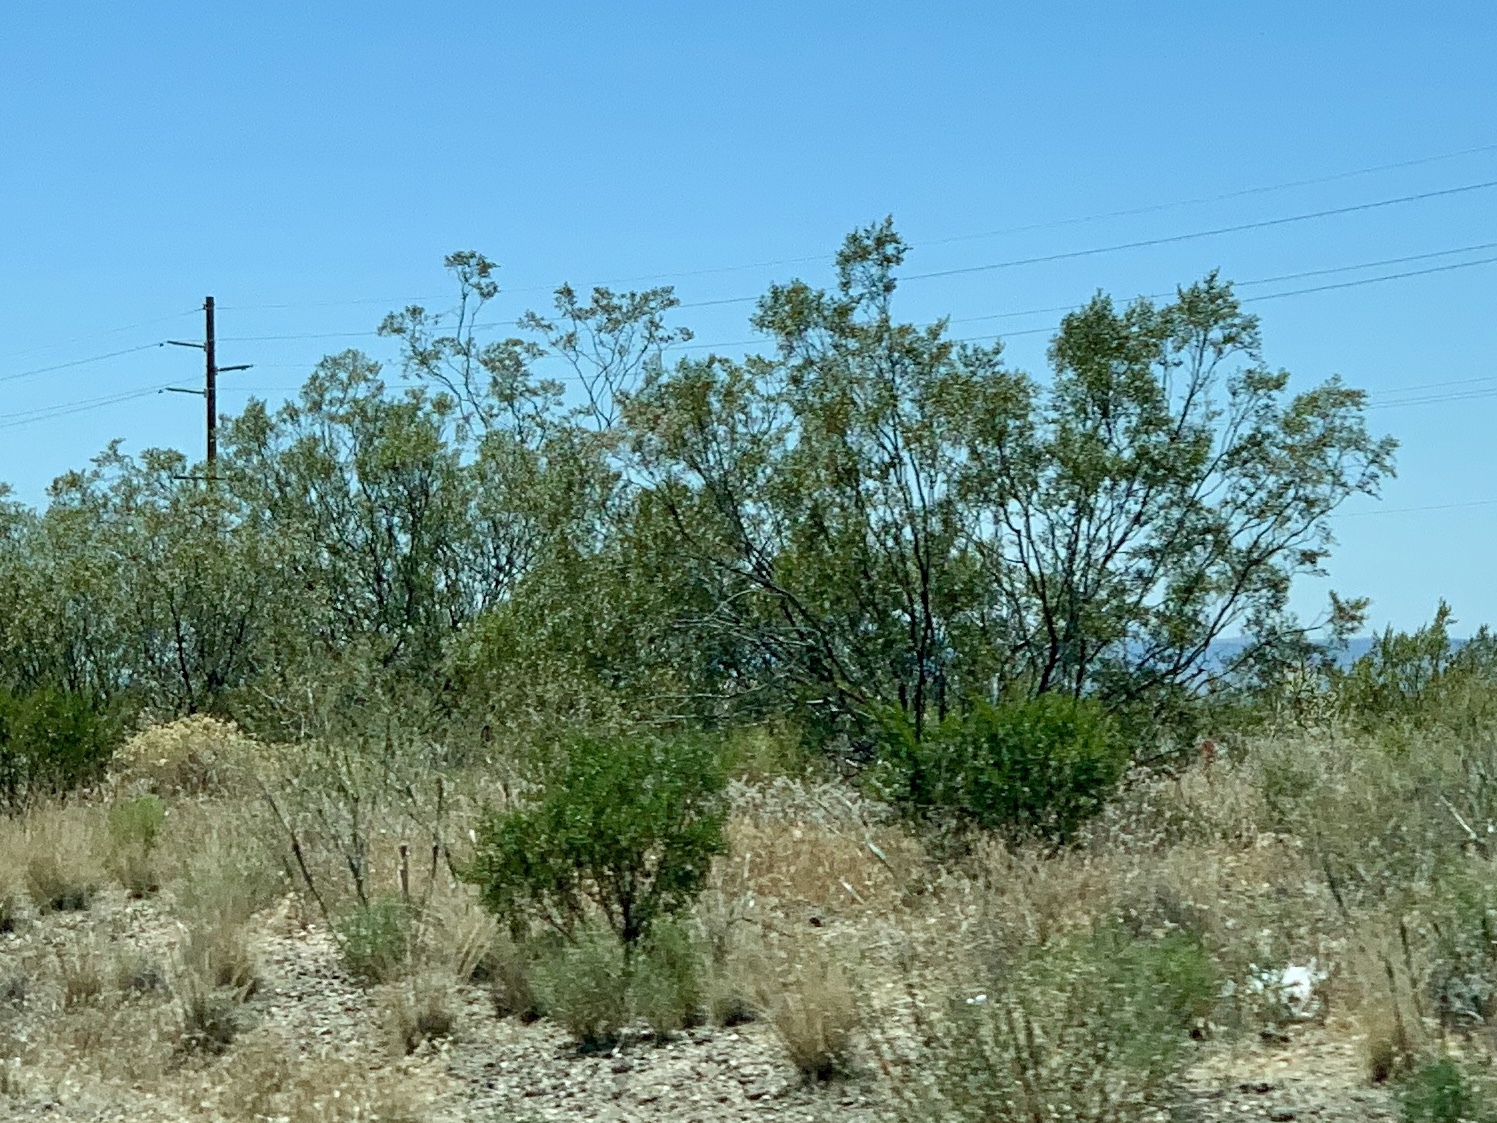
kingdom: Plantae
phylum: Tracheophyta
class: Magnoliopsida
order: Zygophyllales
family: Zygophyllaceae
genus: Larrea
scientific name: Larrea tridentata
